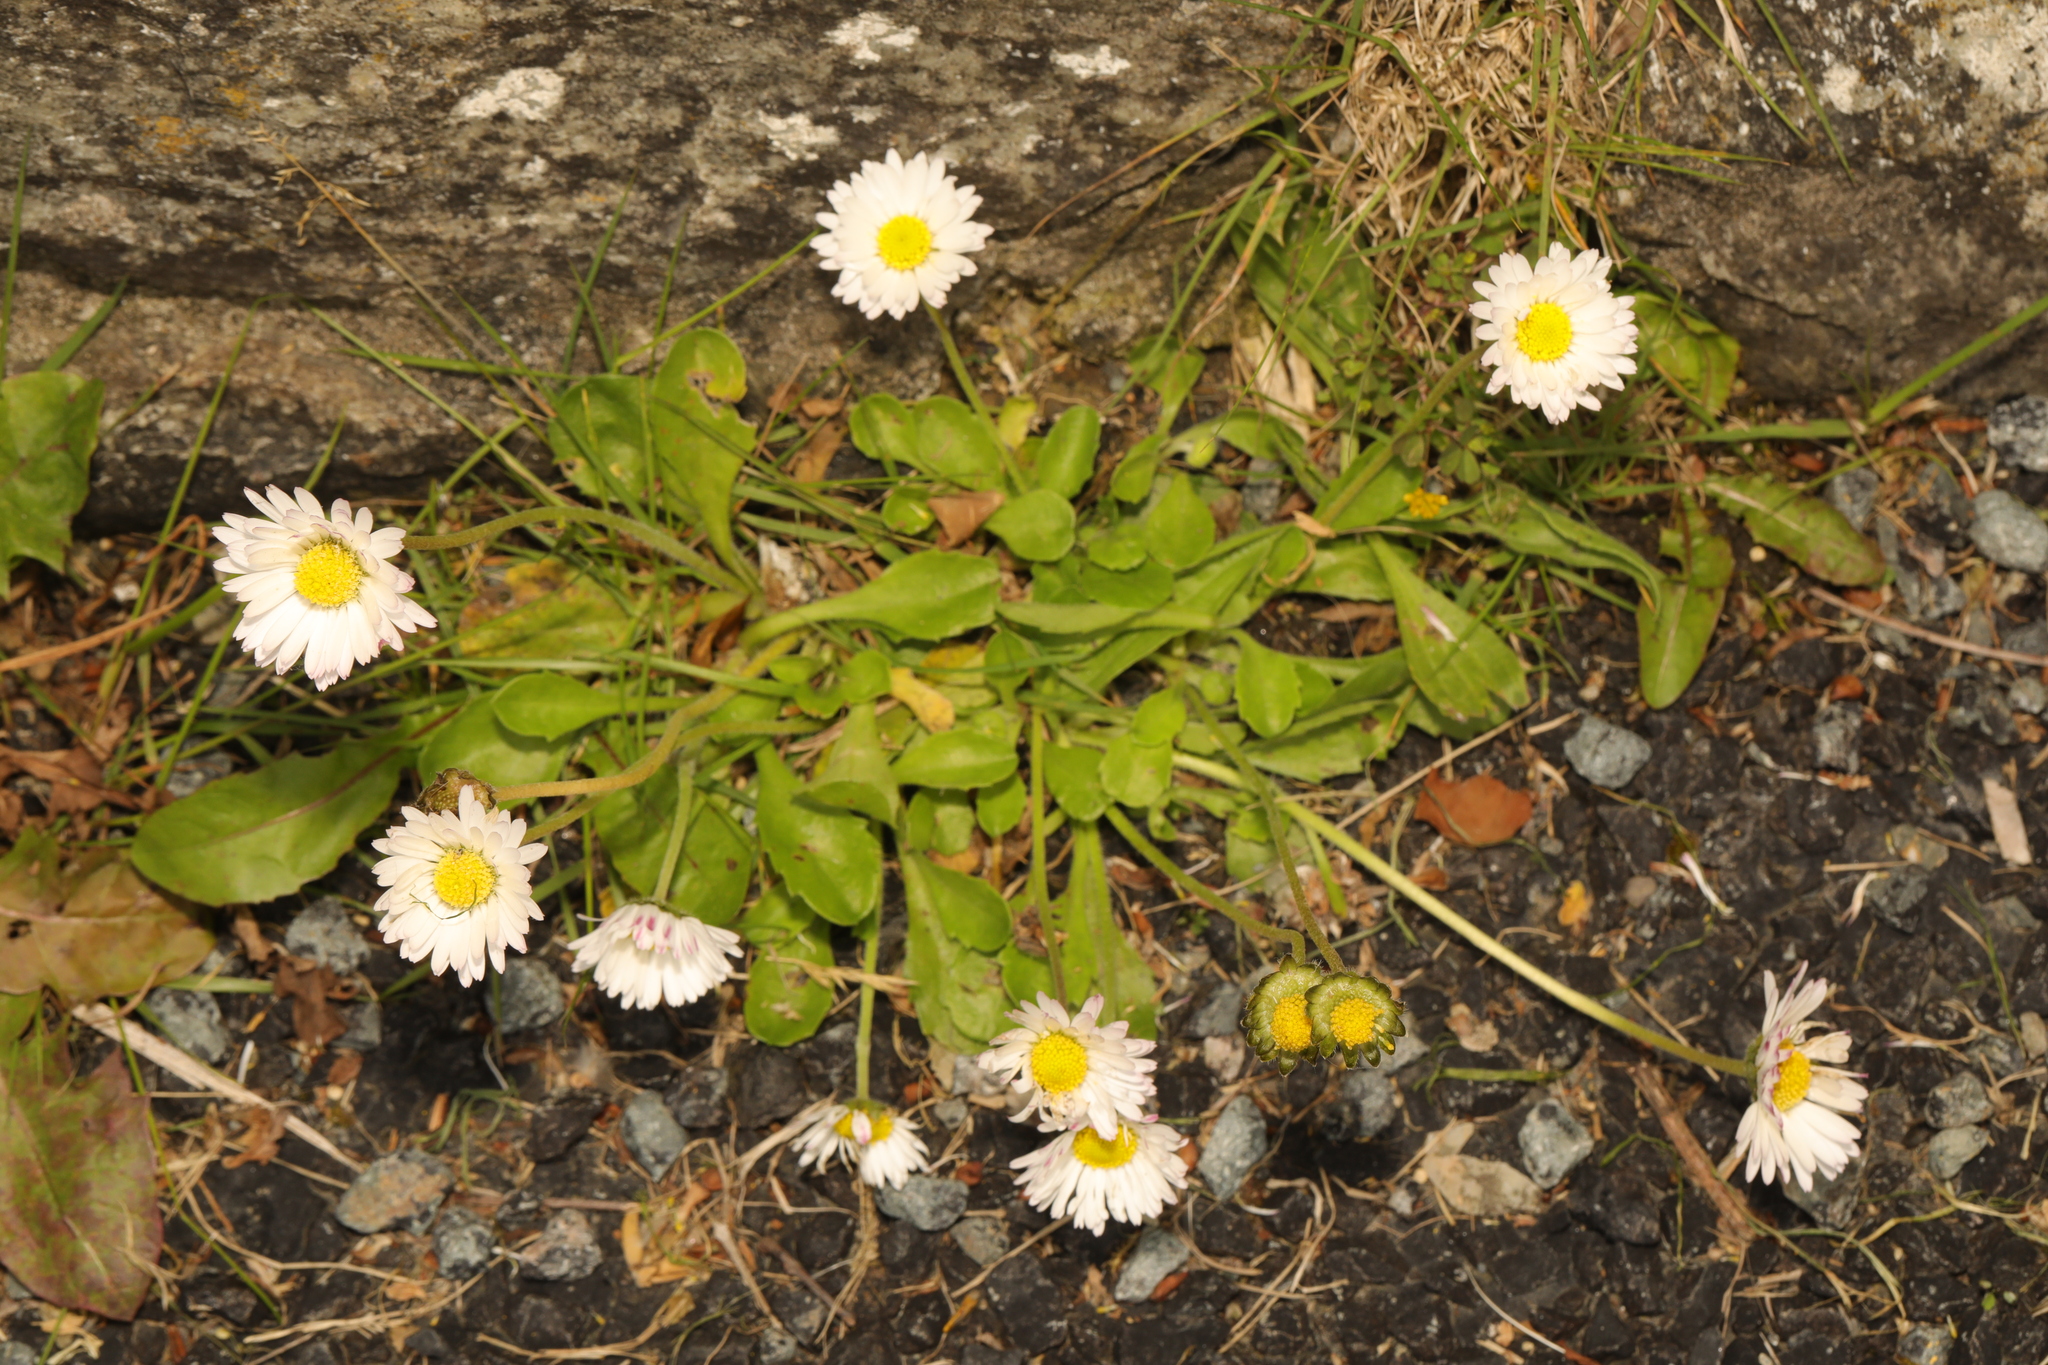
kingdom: Plantae
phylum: Tracheophyta
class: Magnoliopsida
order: Asterales
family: Asteraceae
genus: Bellis
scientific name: Bellis perennis
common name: Lawndaisy
